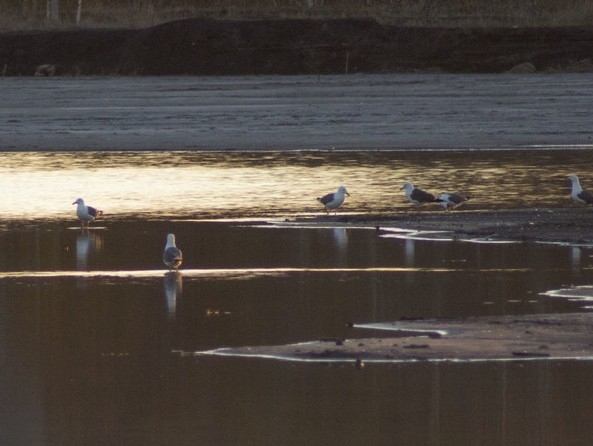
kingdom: Animalia
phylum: Chordata
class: Aves
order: Charadriiformes
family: Laridae
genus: Larus
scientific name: Larus fuscus
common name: Lesser black-backed gull
